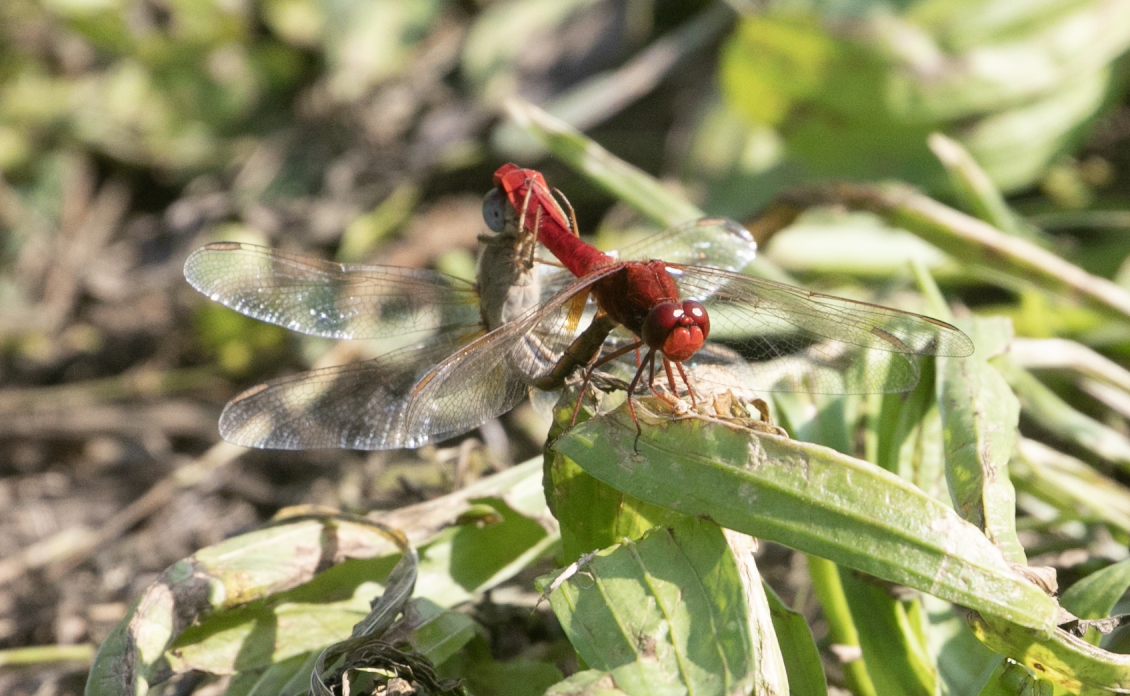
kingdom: Animalia
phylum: Arthropoda
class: Insecta
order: Odonata
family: Libellulidae
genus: Crocothemis
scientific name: Crocothemis erythraea
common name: Scarlet dragonfly
